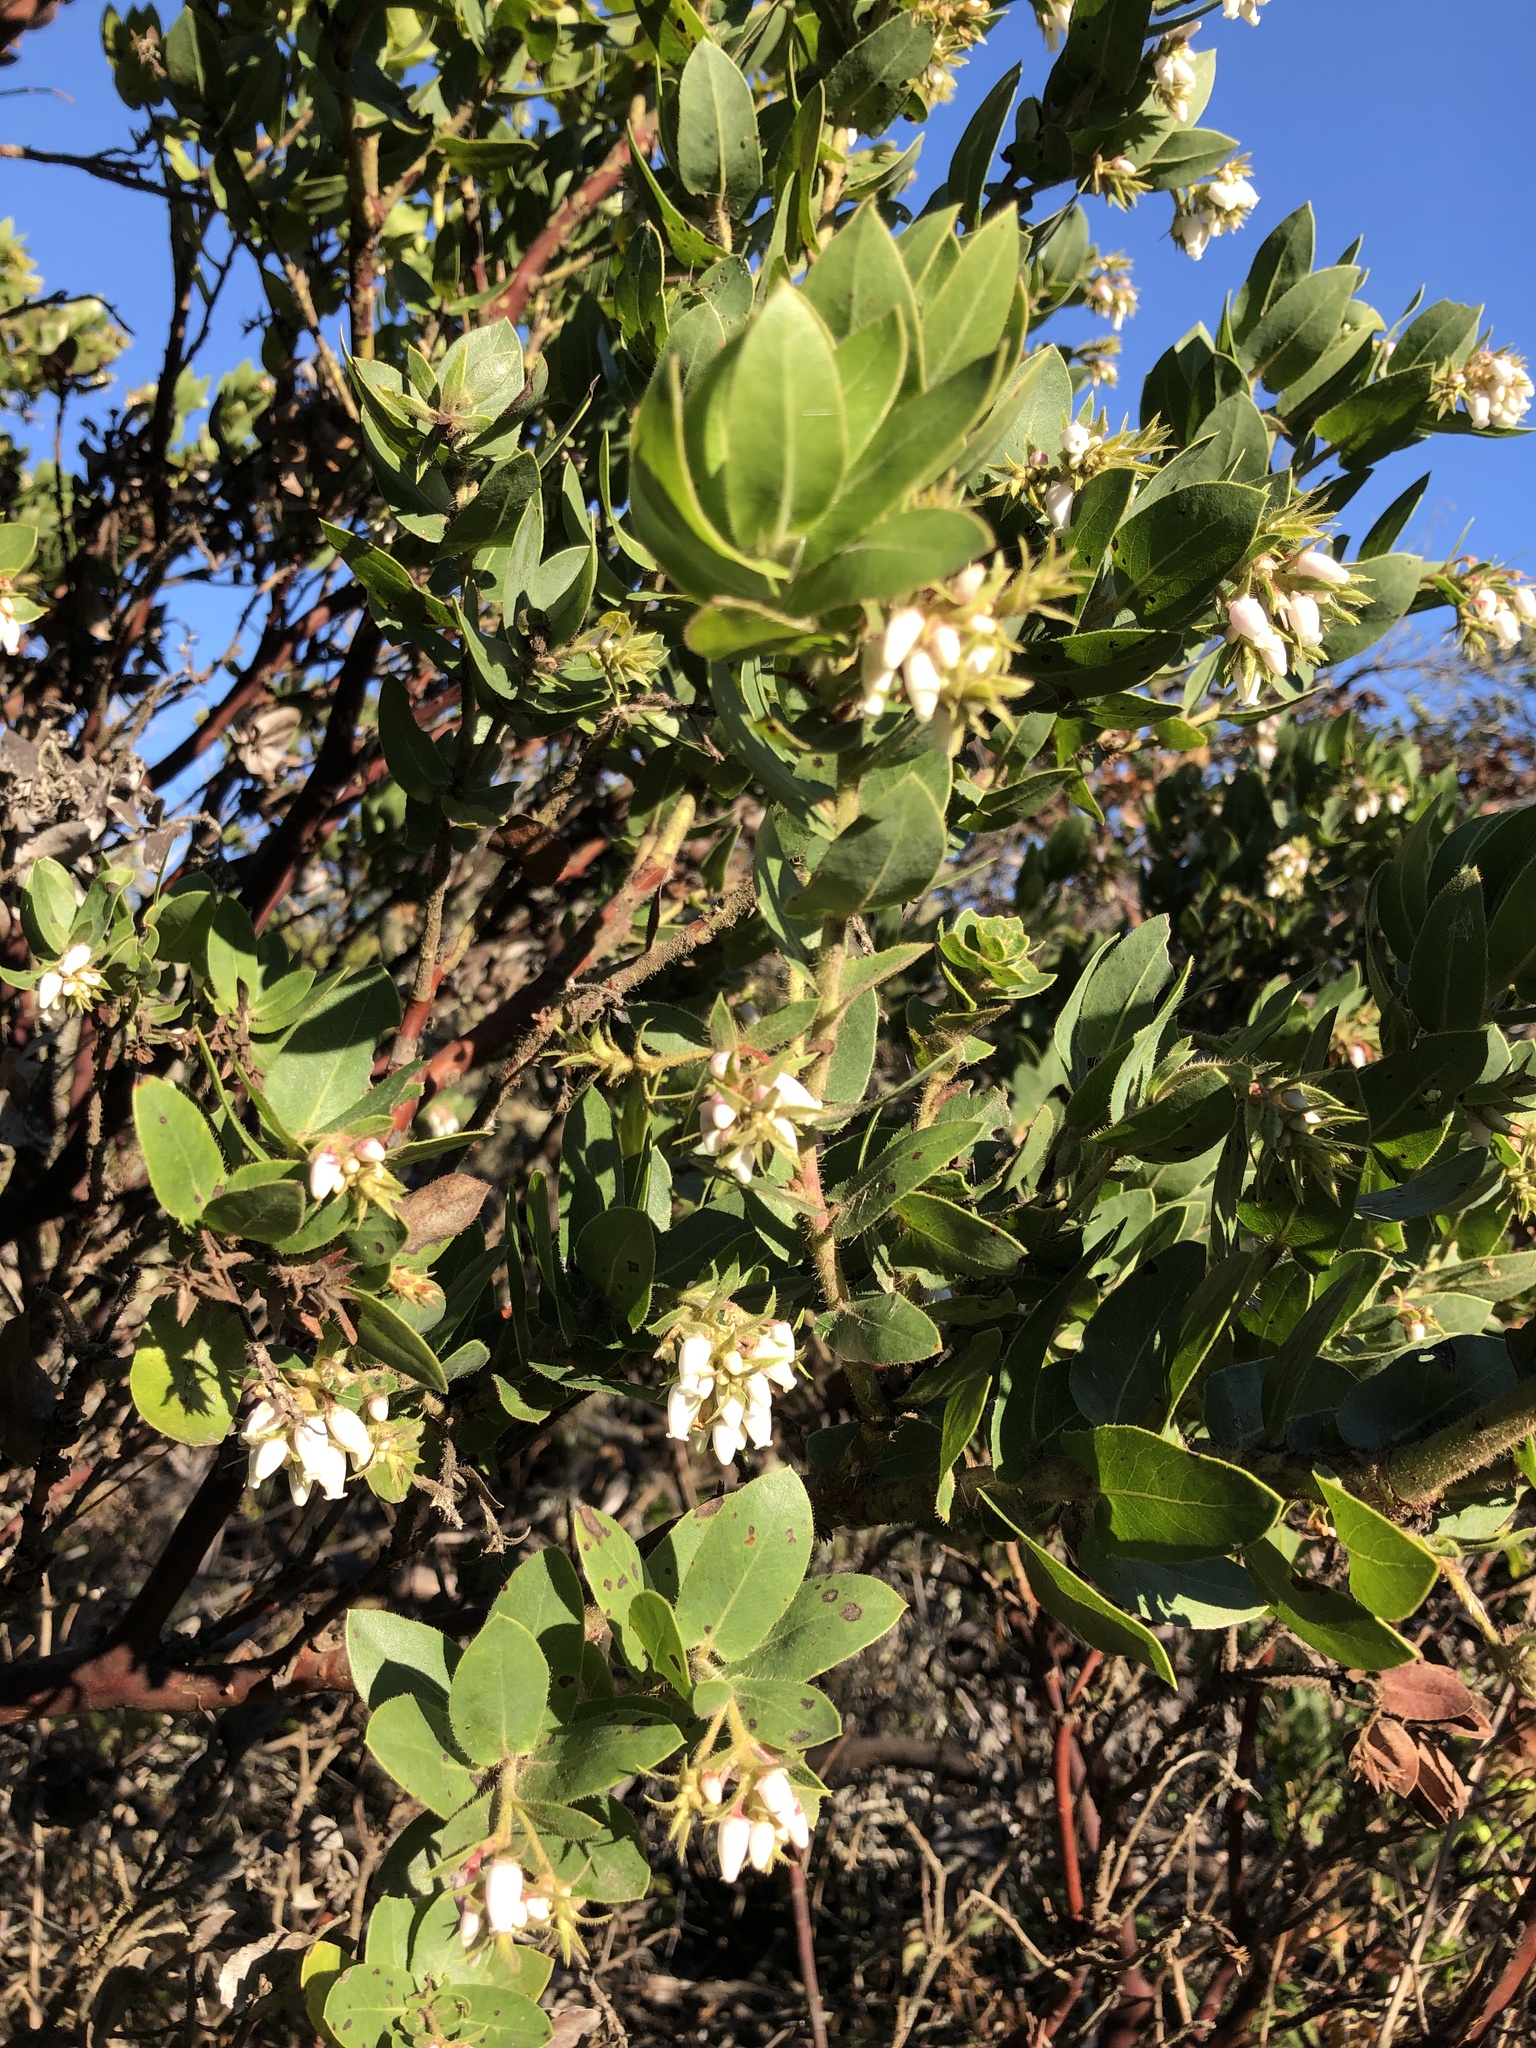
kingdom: Plantae
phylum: Tracheophyta
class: Magnoliopsida
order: Ericales
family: Ericaceae
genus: Arctostaphylos
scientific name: Arctostaphylos montaraensis
